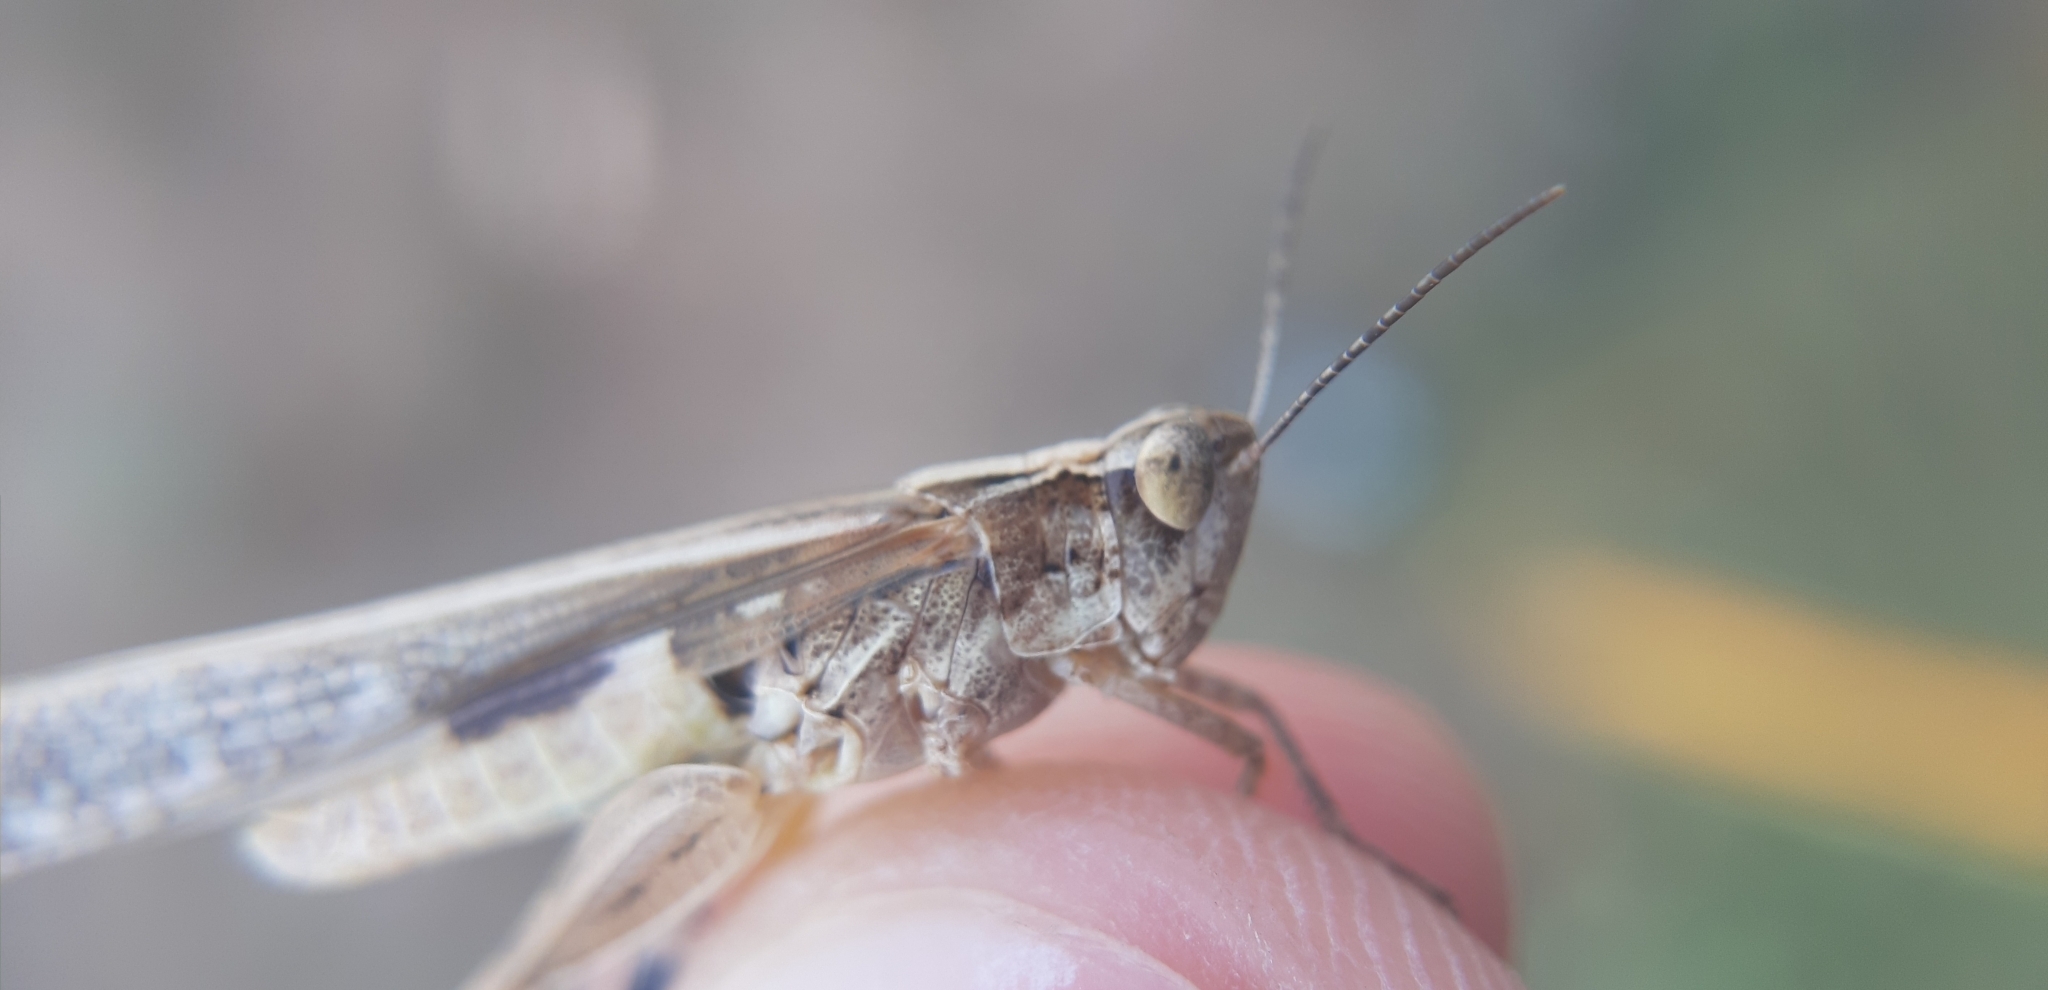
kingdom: Animalia
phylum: Arthropoda
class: Insecta
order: Orthoptera
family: Acrididae
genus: Aiolopus
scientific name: Aiolopus puissanti
